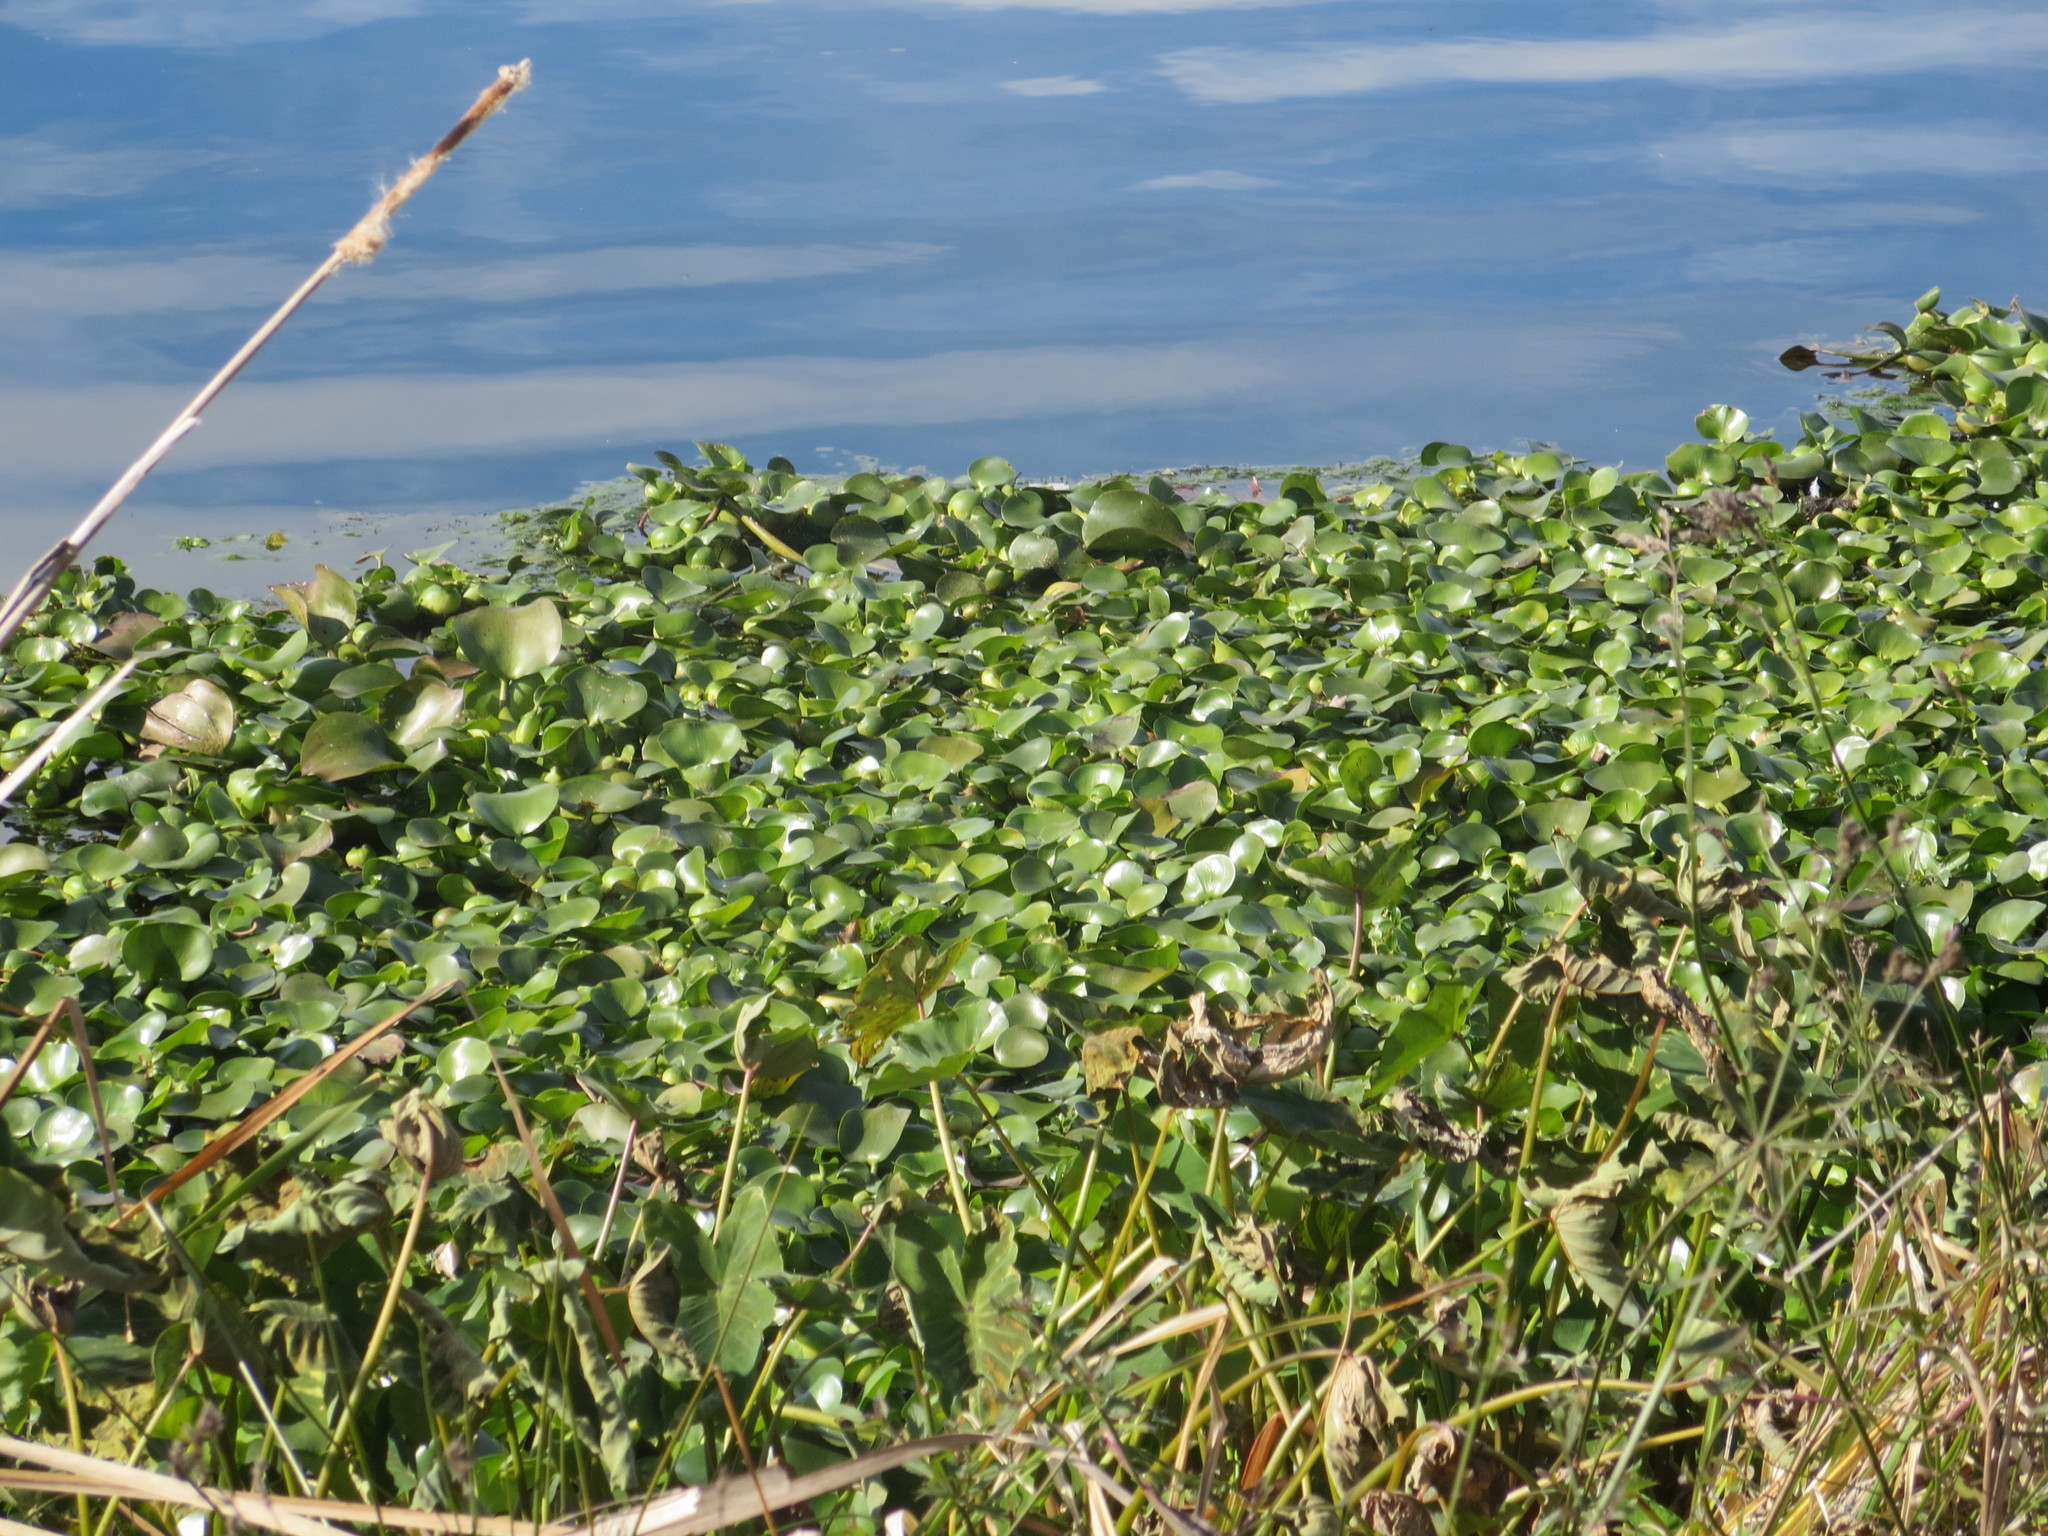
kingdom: Plantae
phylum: Tracheophyta
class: Liliopsida
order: Commelinales
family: Pontederiaceae
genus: Pontederia
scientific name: Pontederia crassipes
